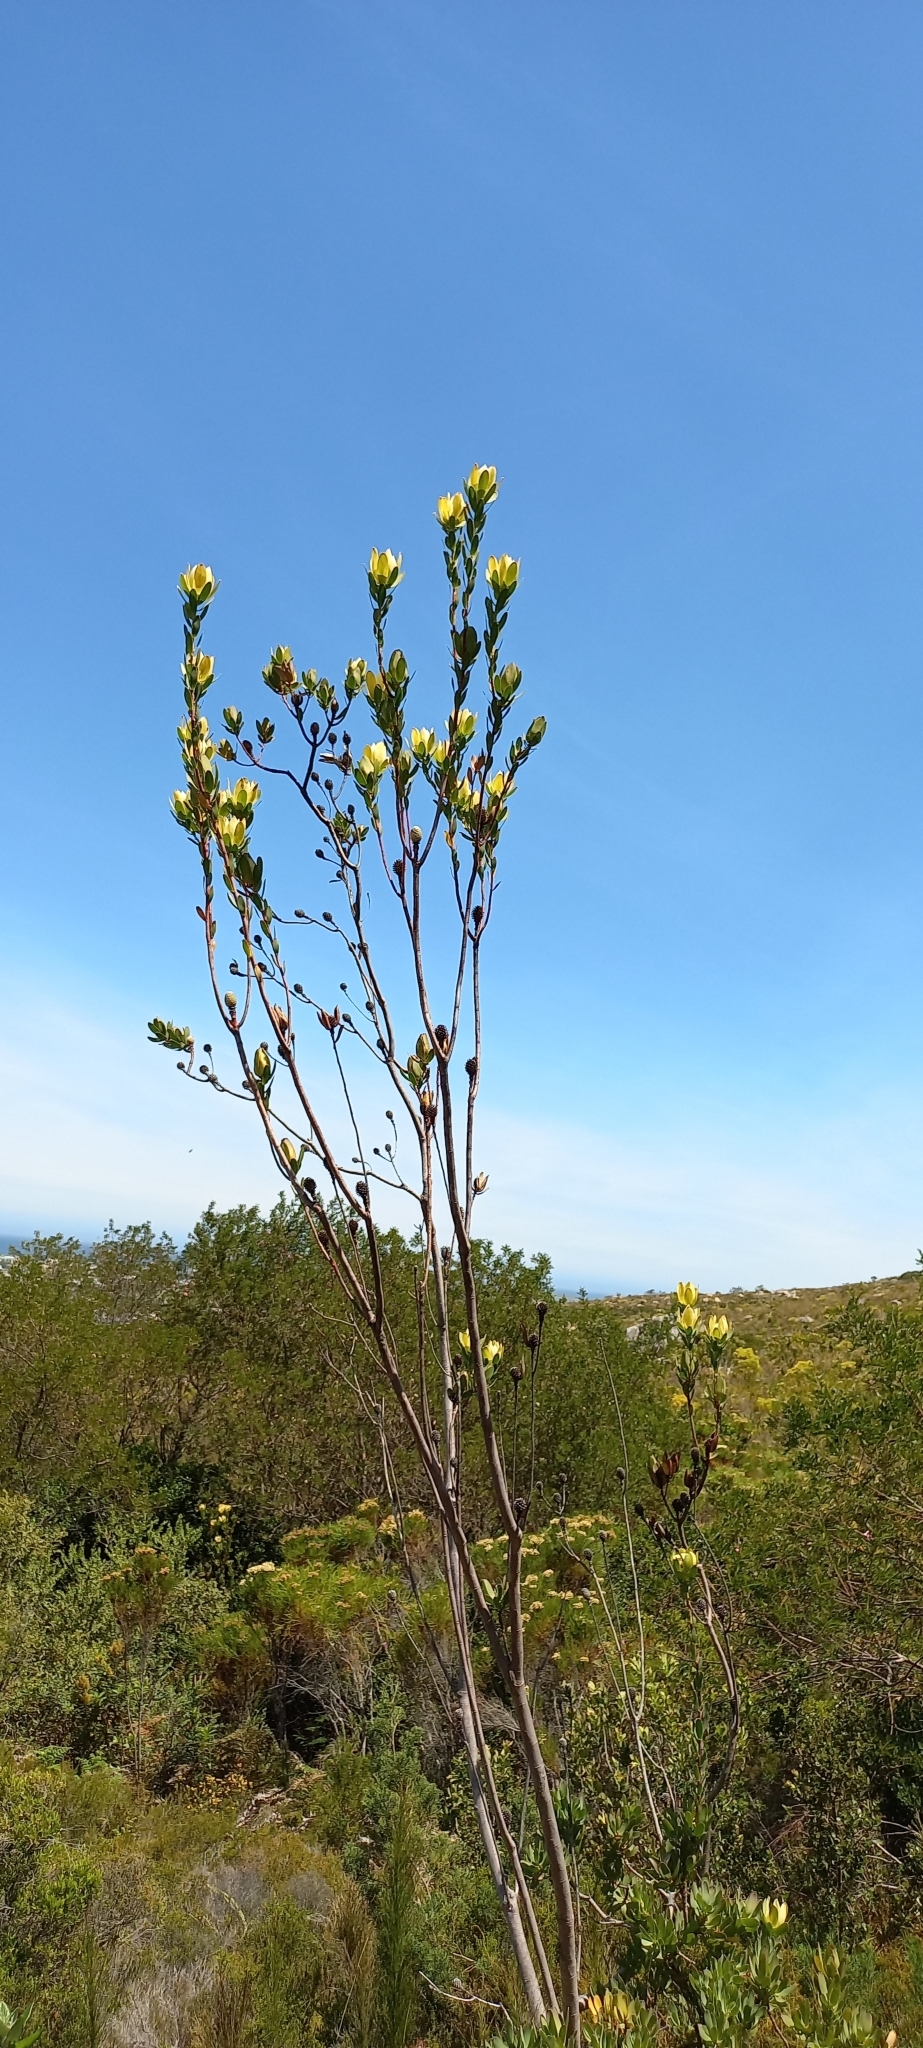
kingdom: Plantae
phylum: Tracheophyta
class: Magnoliopsida
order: Proteales
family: Proteaceae
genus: Leucadendron
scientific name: Leucadendron
